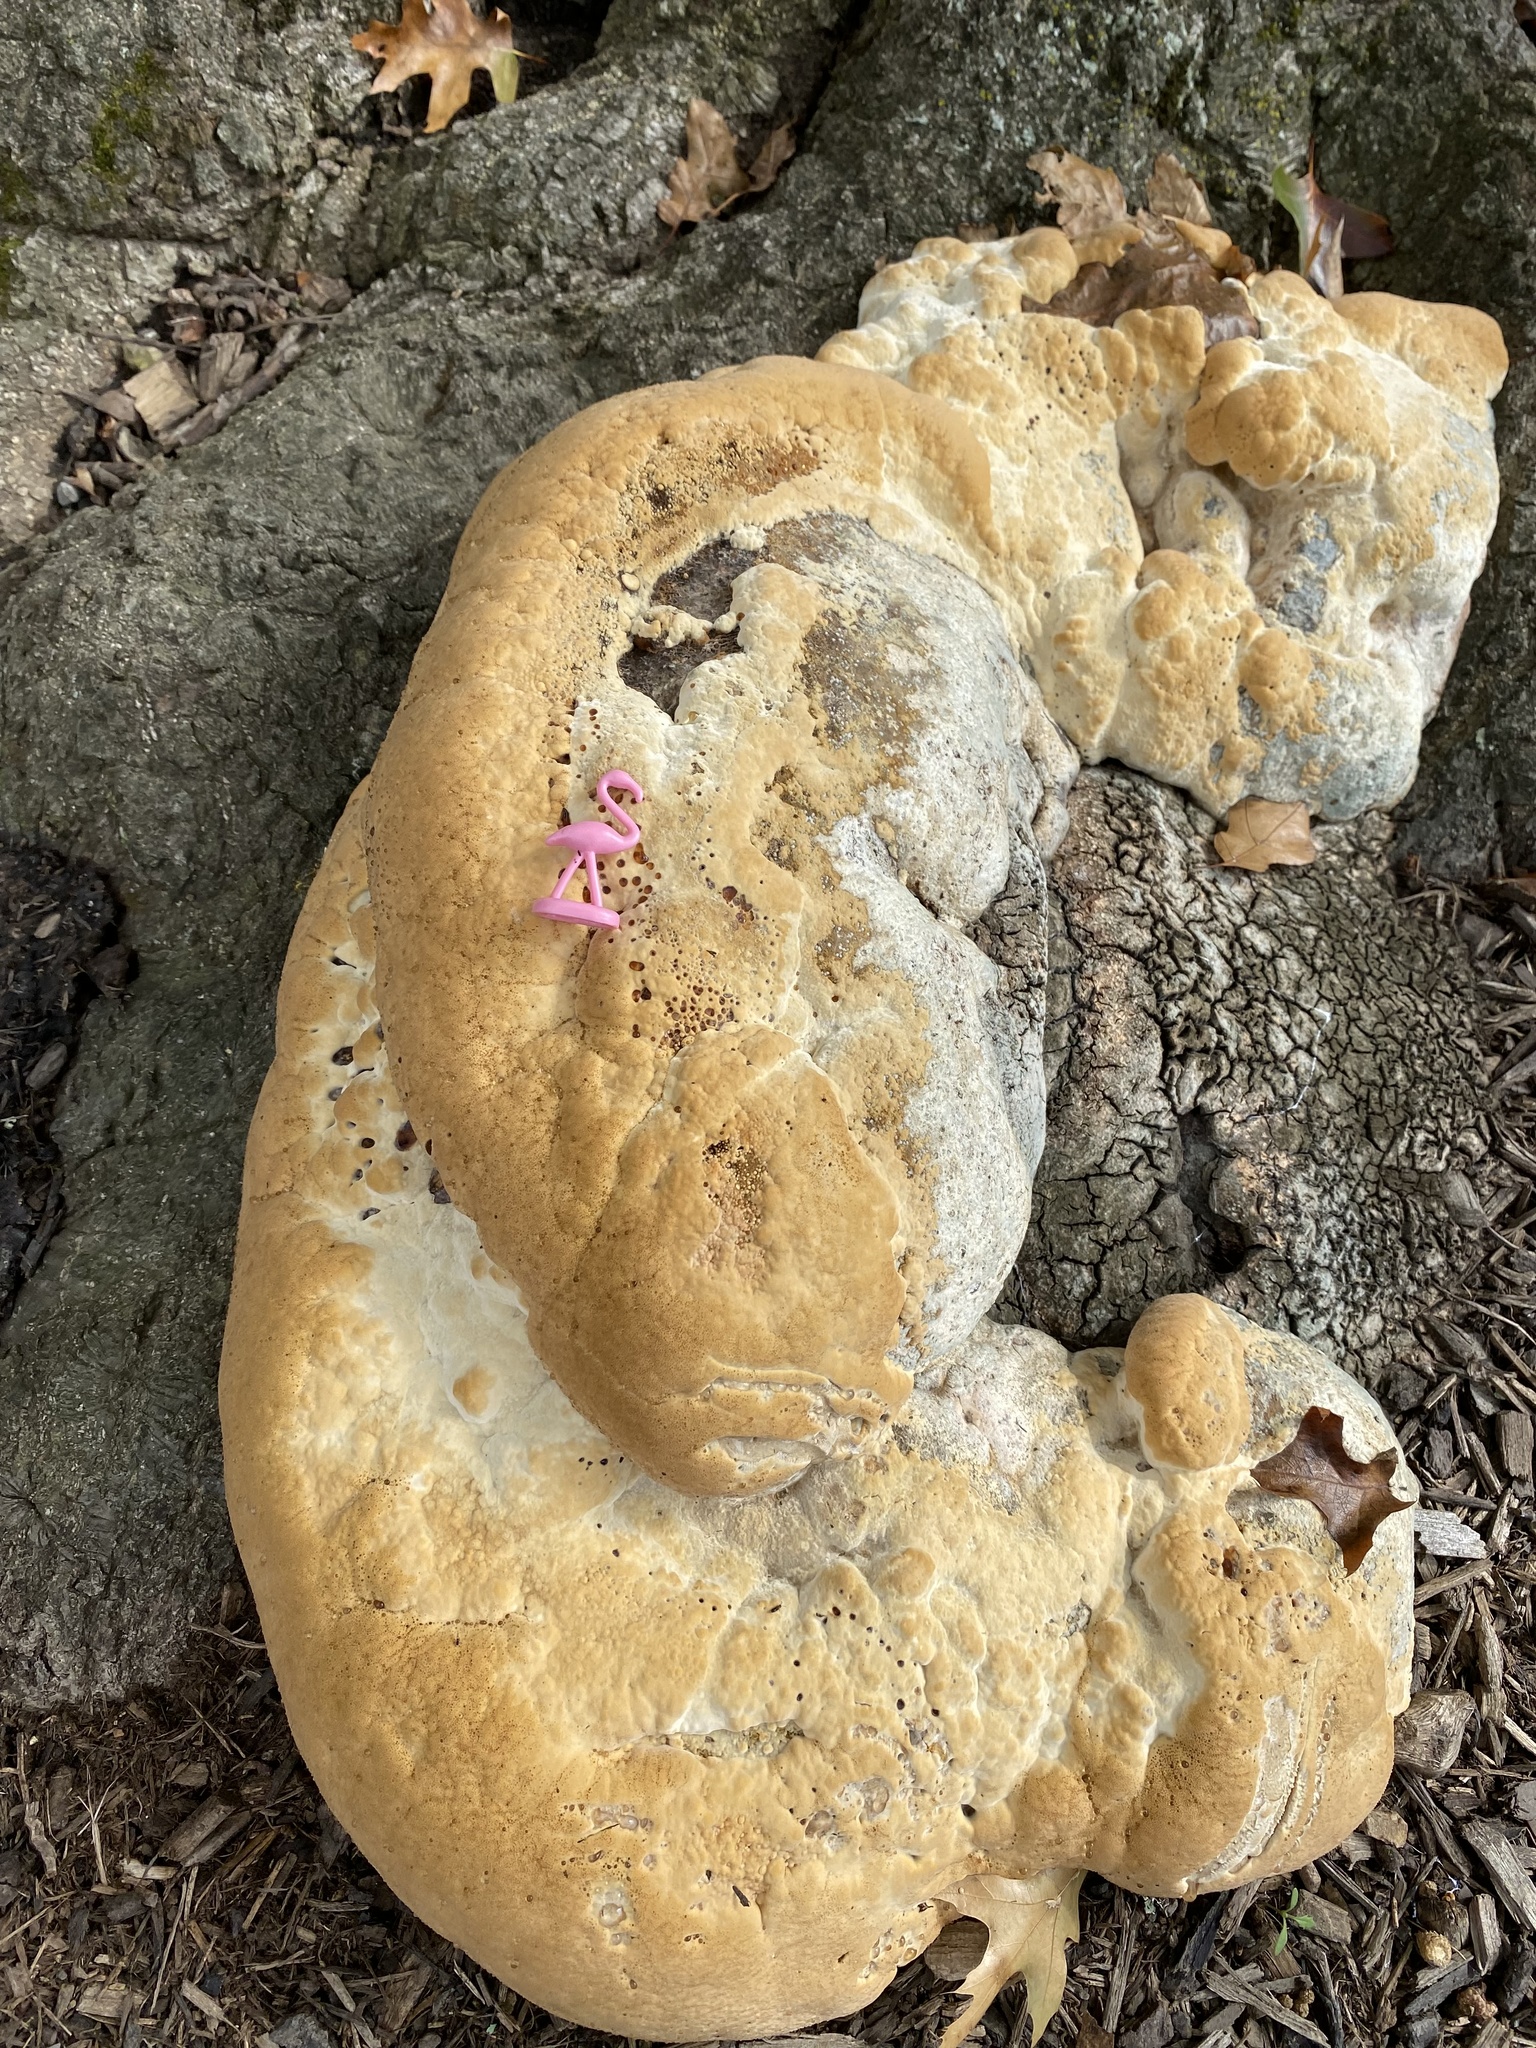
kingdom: Fungi
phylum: Basidiomycota
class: Agaricomycetes
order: Hymenochaetales
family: Hymenochaetaceae
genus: Pseudoinonotus
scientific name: Pseudoinonotus dryadeus
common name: Oak bracket
